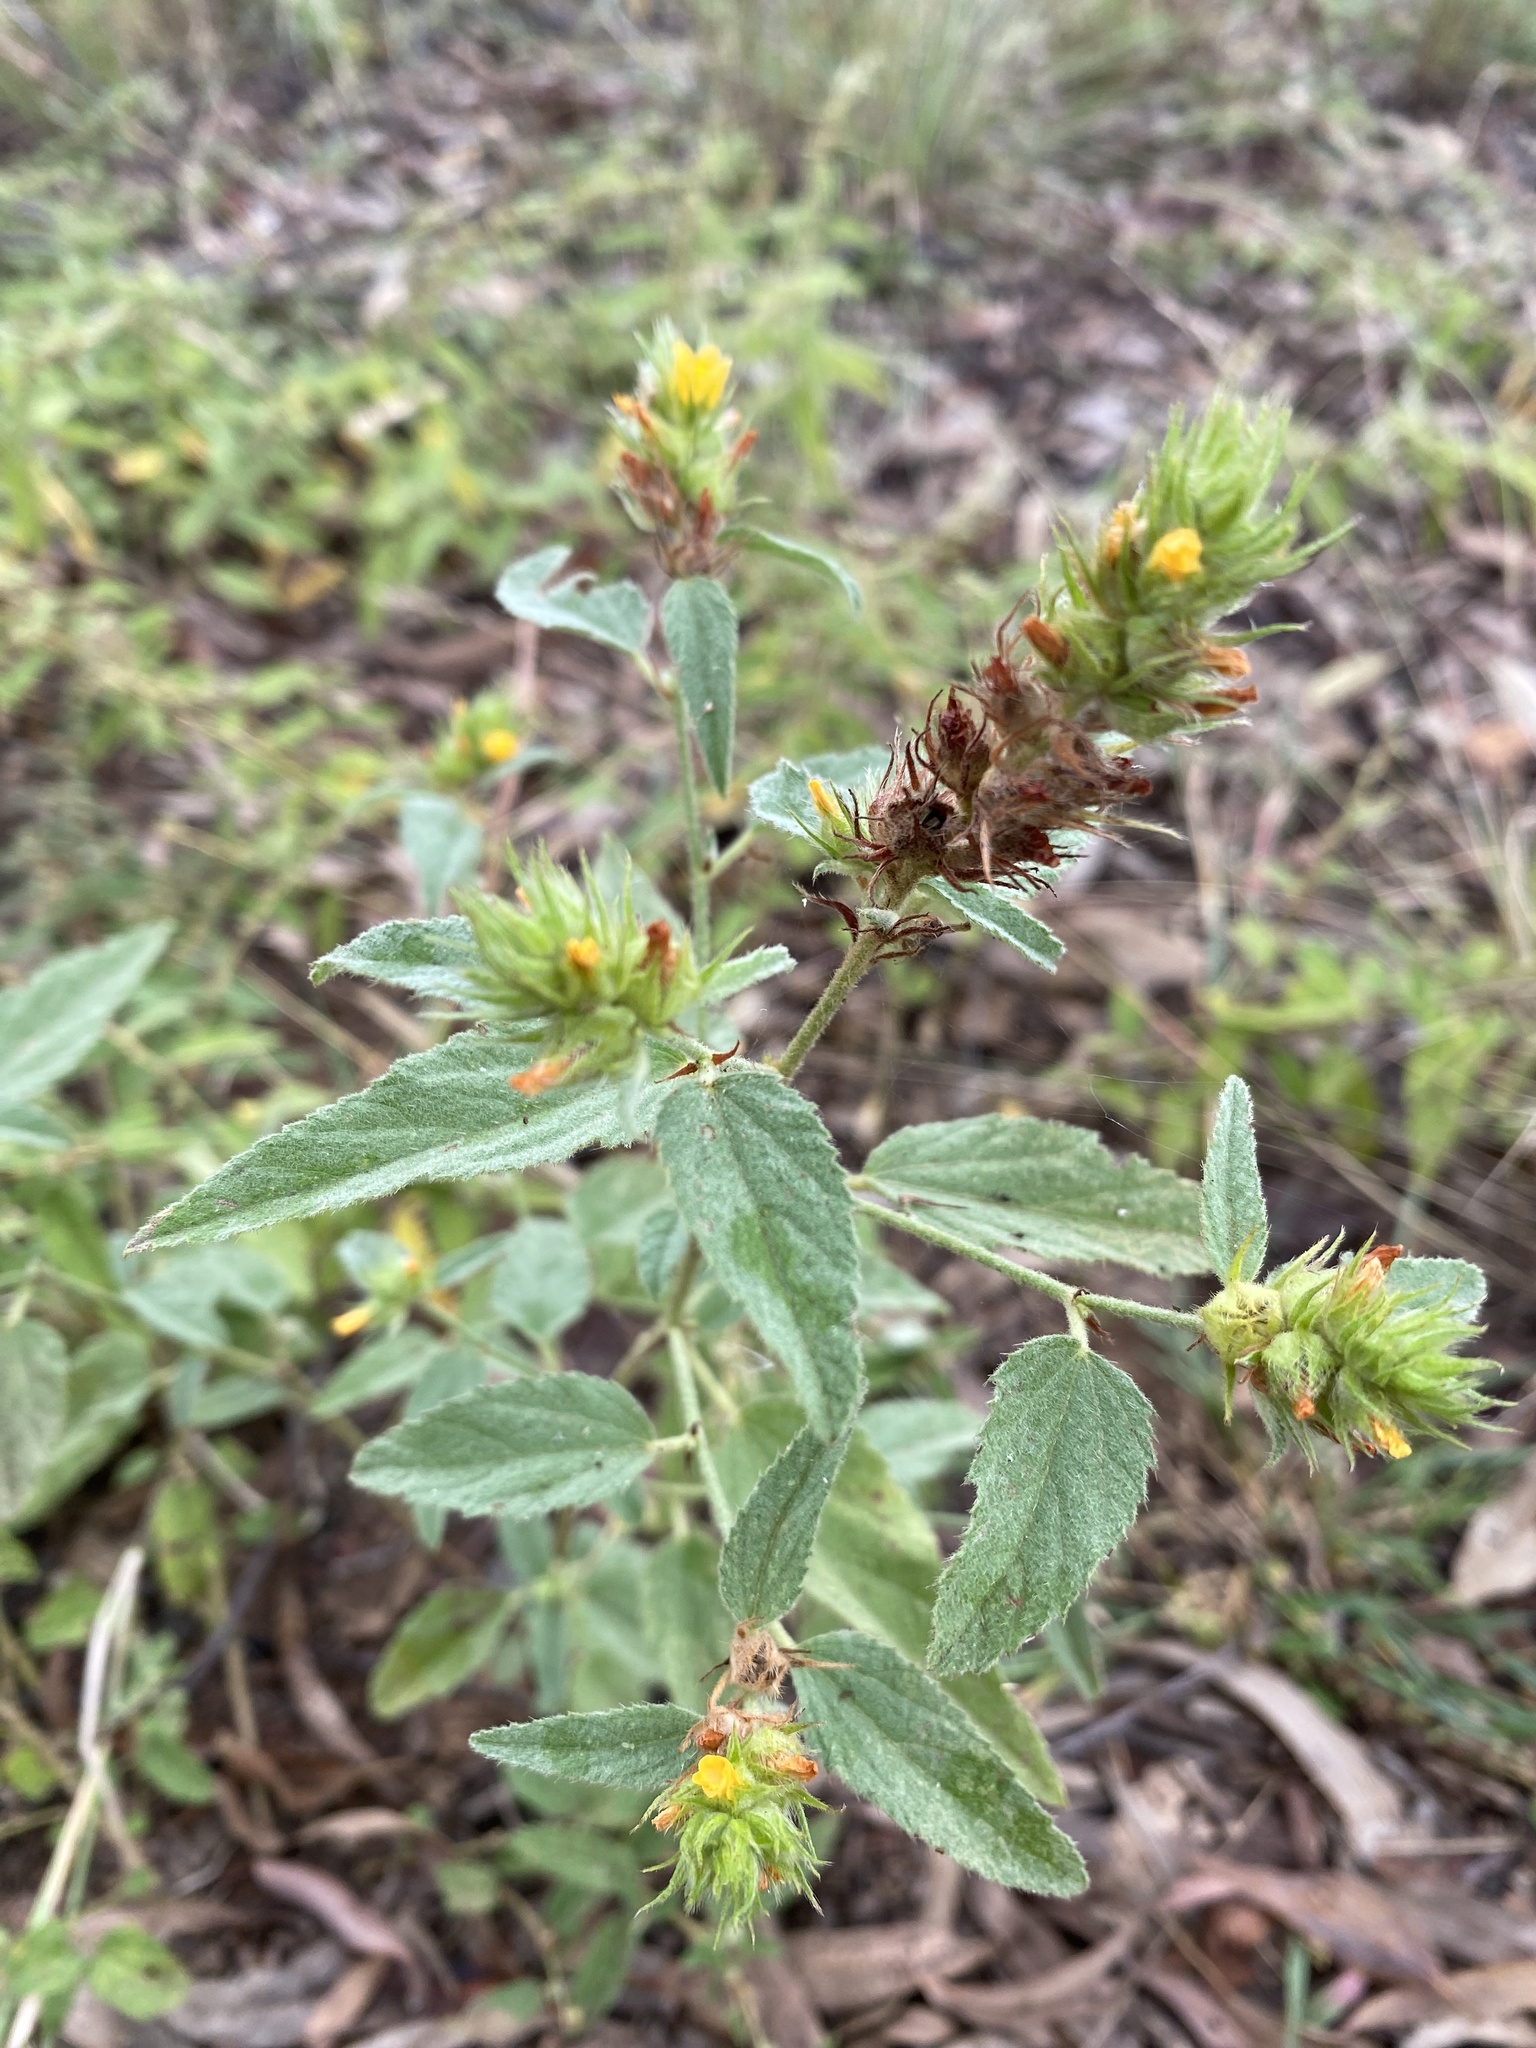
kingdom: Plantae
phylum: Tracheophyta
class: Magnoliopsida
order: Malvales
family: Malvaceae
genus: Malvastrum
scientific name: Malvastrum americanum
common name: Spiked malvastrum
